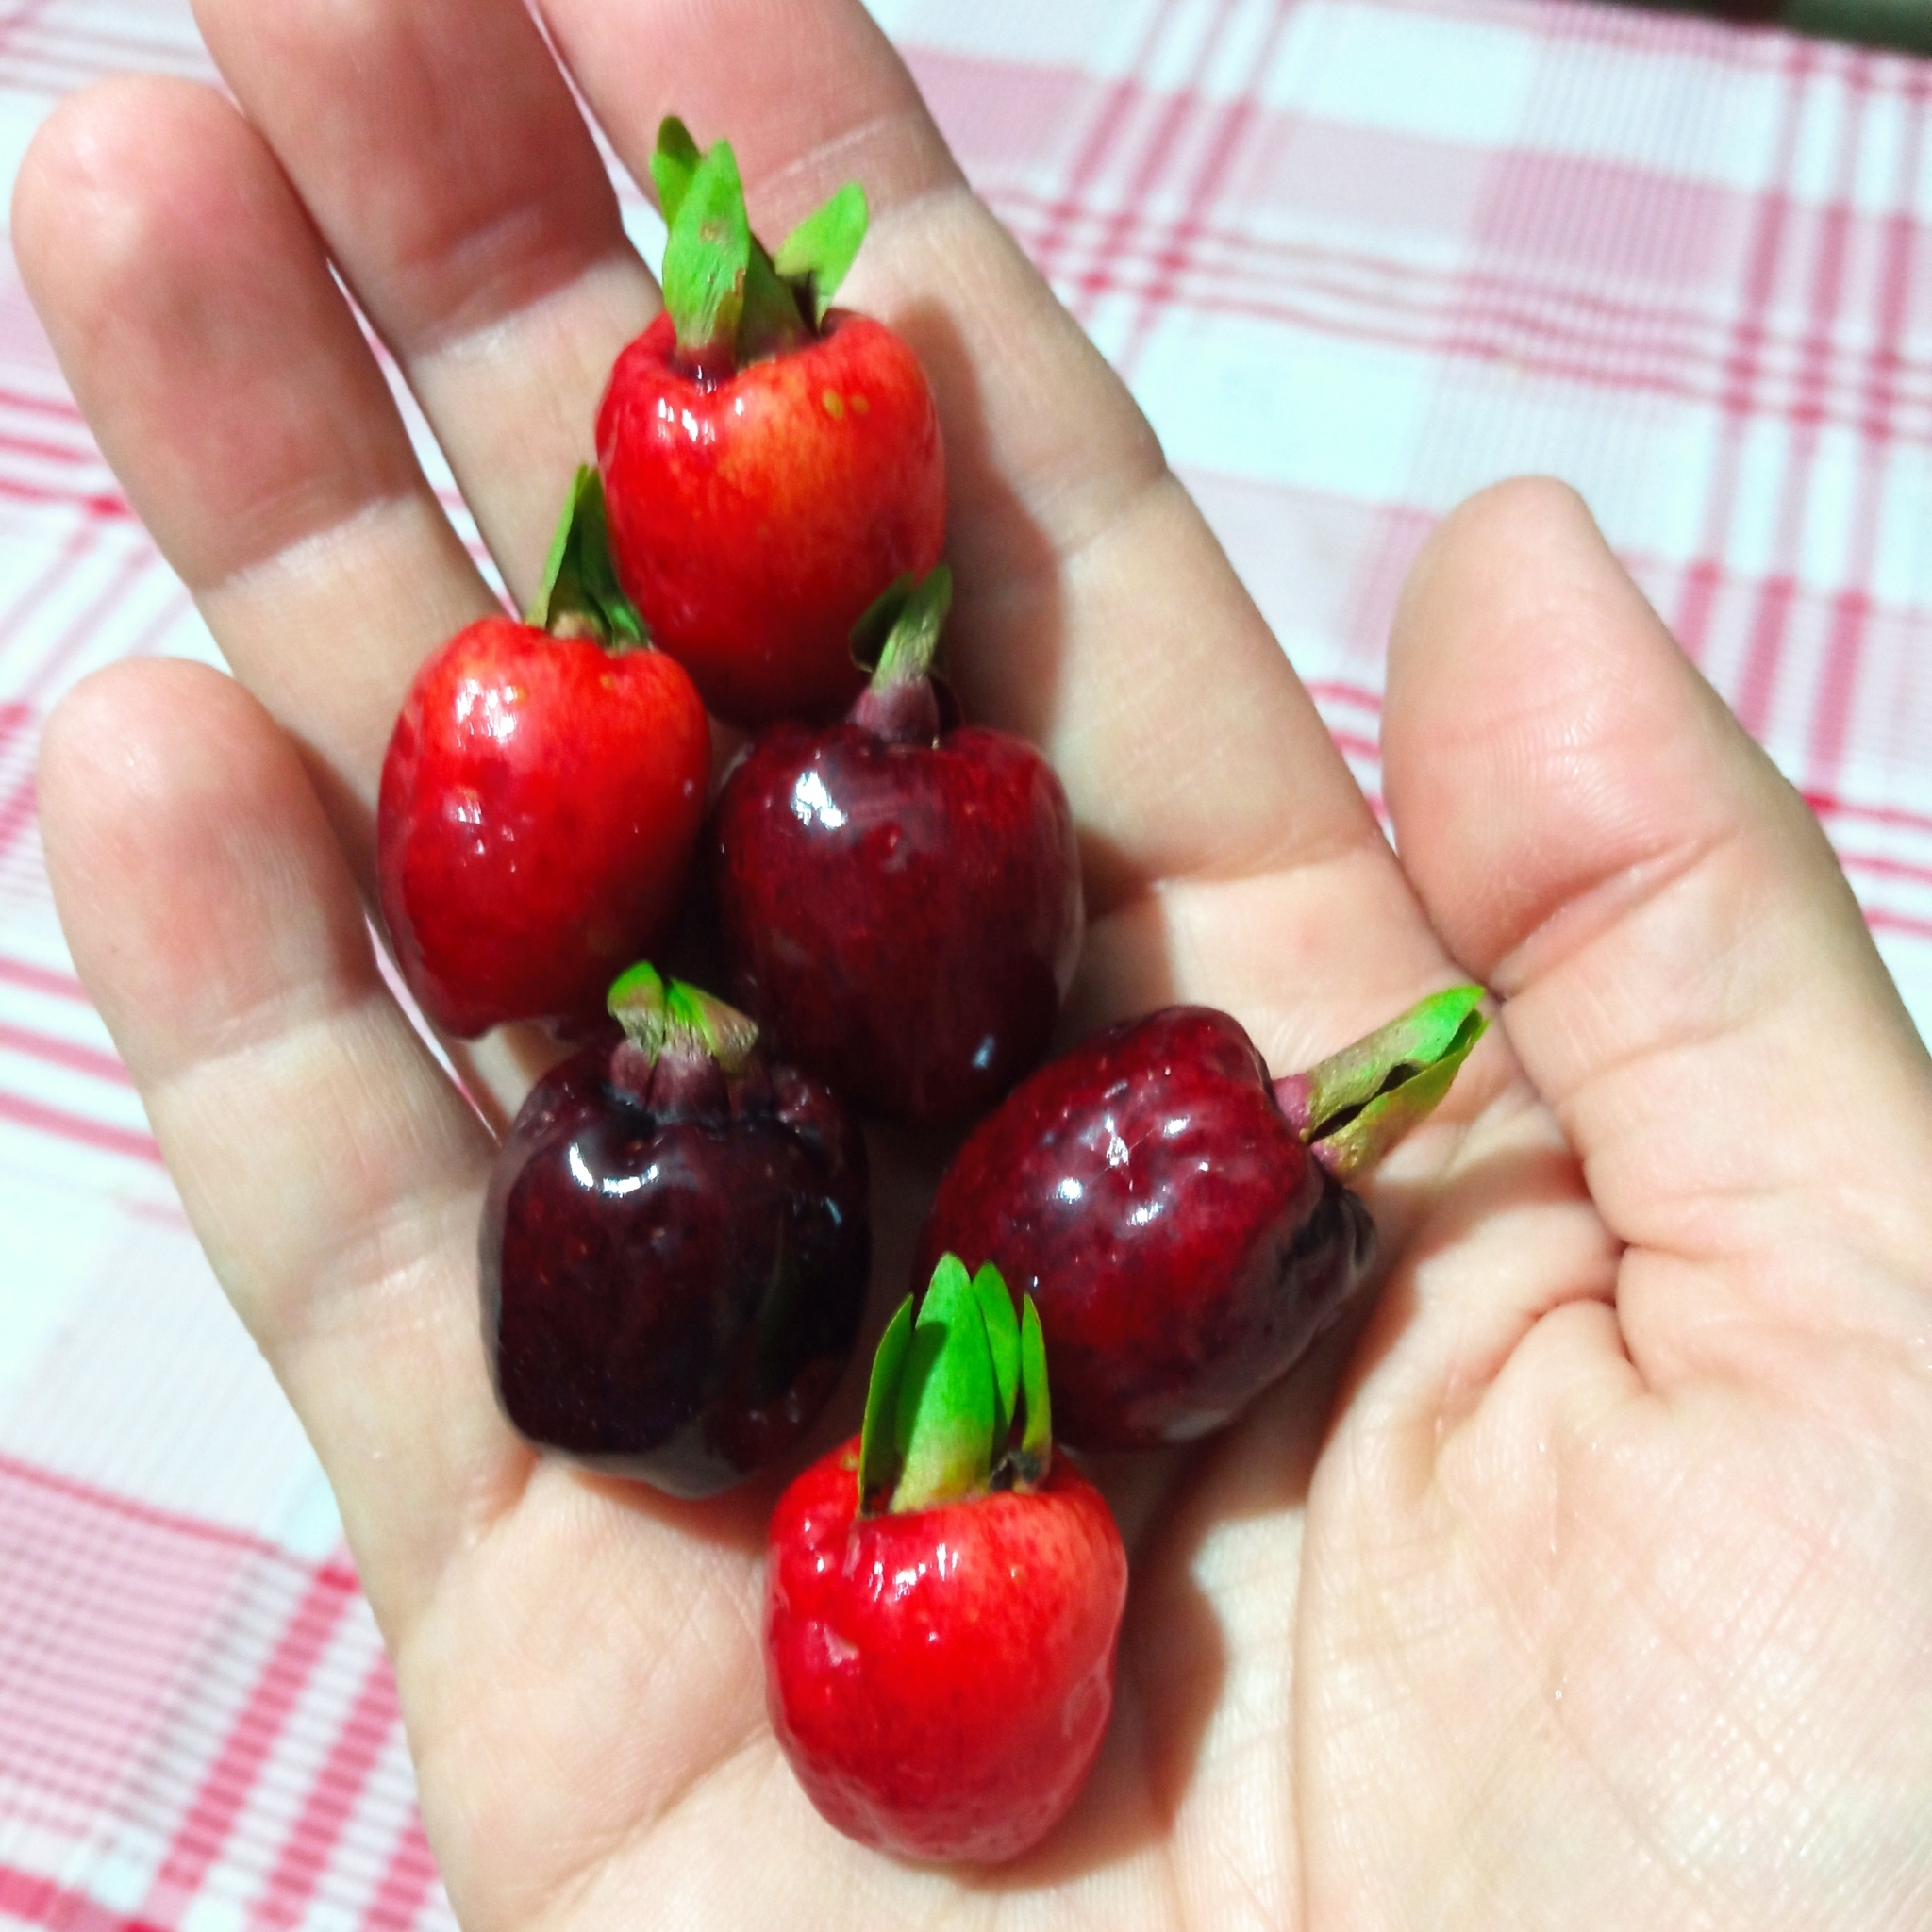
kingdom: Plantae
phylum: Tracheophyta
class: Magnoliopsida
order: Myrtales
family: Myrtaceae
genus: Eugenia
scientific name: Eugenia involucrata
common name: Cherry-of-the-rio grande
